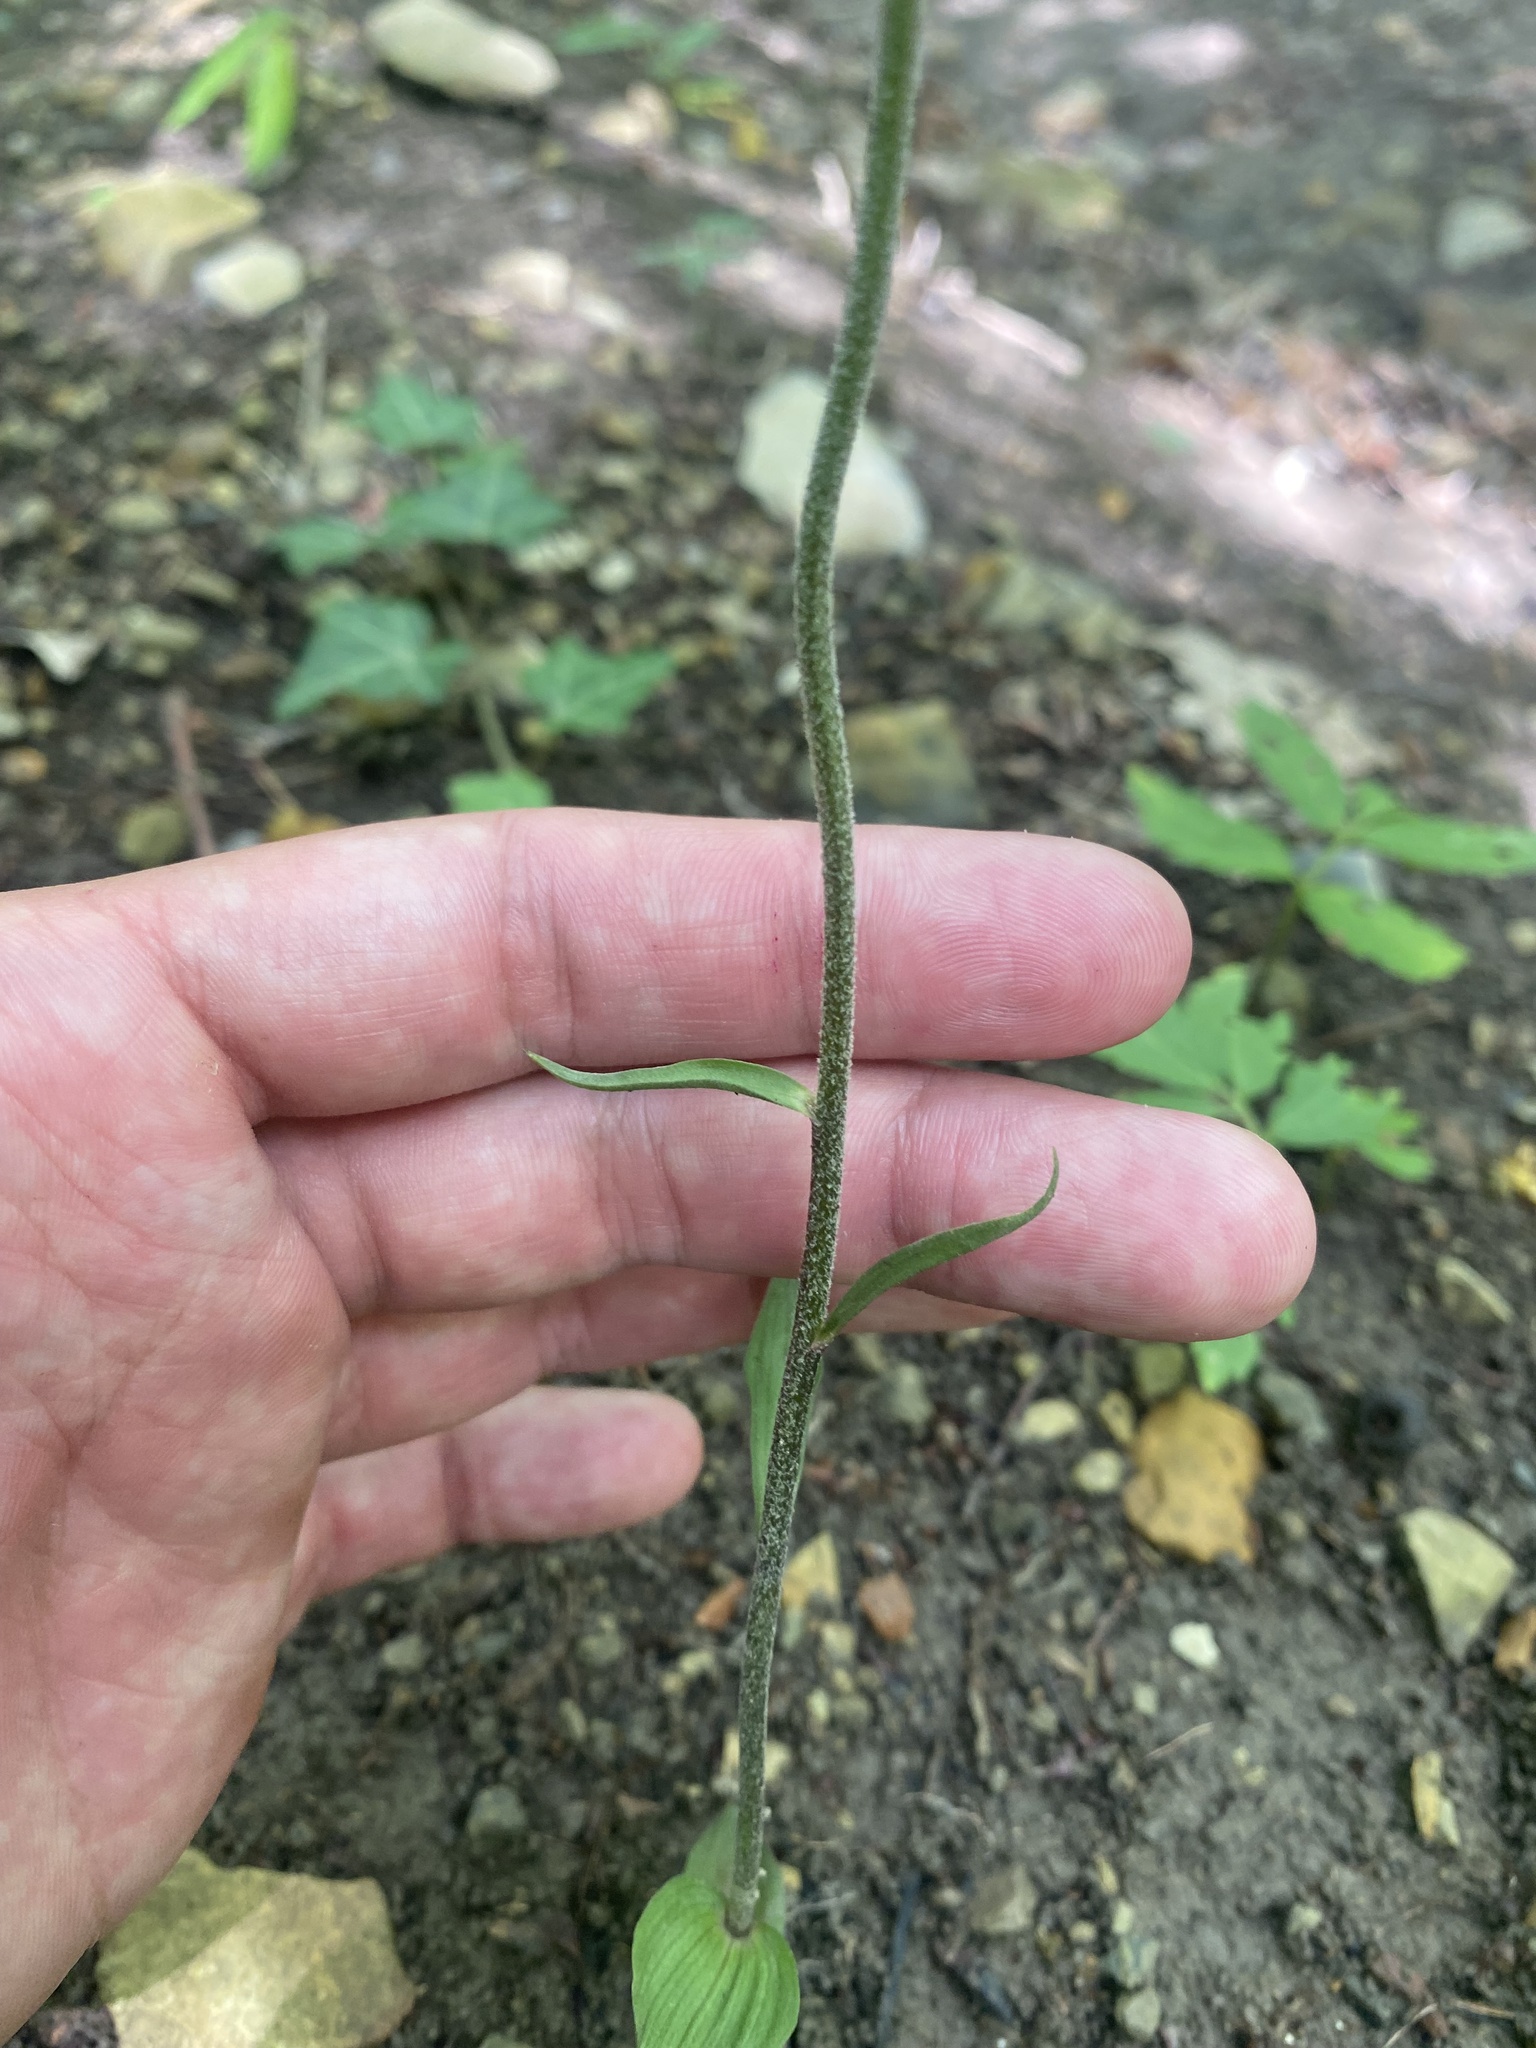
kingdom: Plantae
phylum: Tracheophyta
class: Liliopsida
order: Asparagales
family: Orchidaceae
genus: Epipactis
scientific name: Epipactis microphylla
